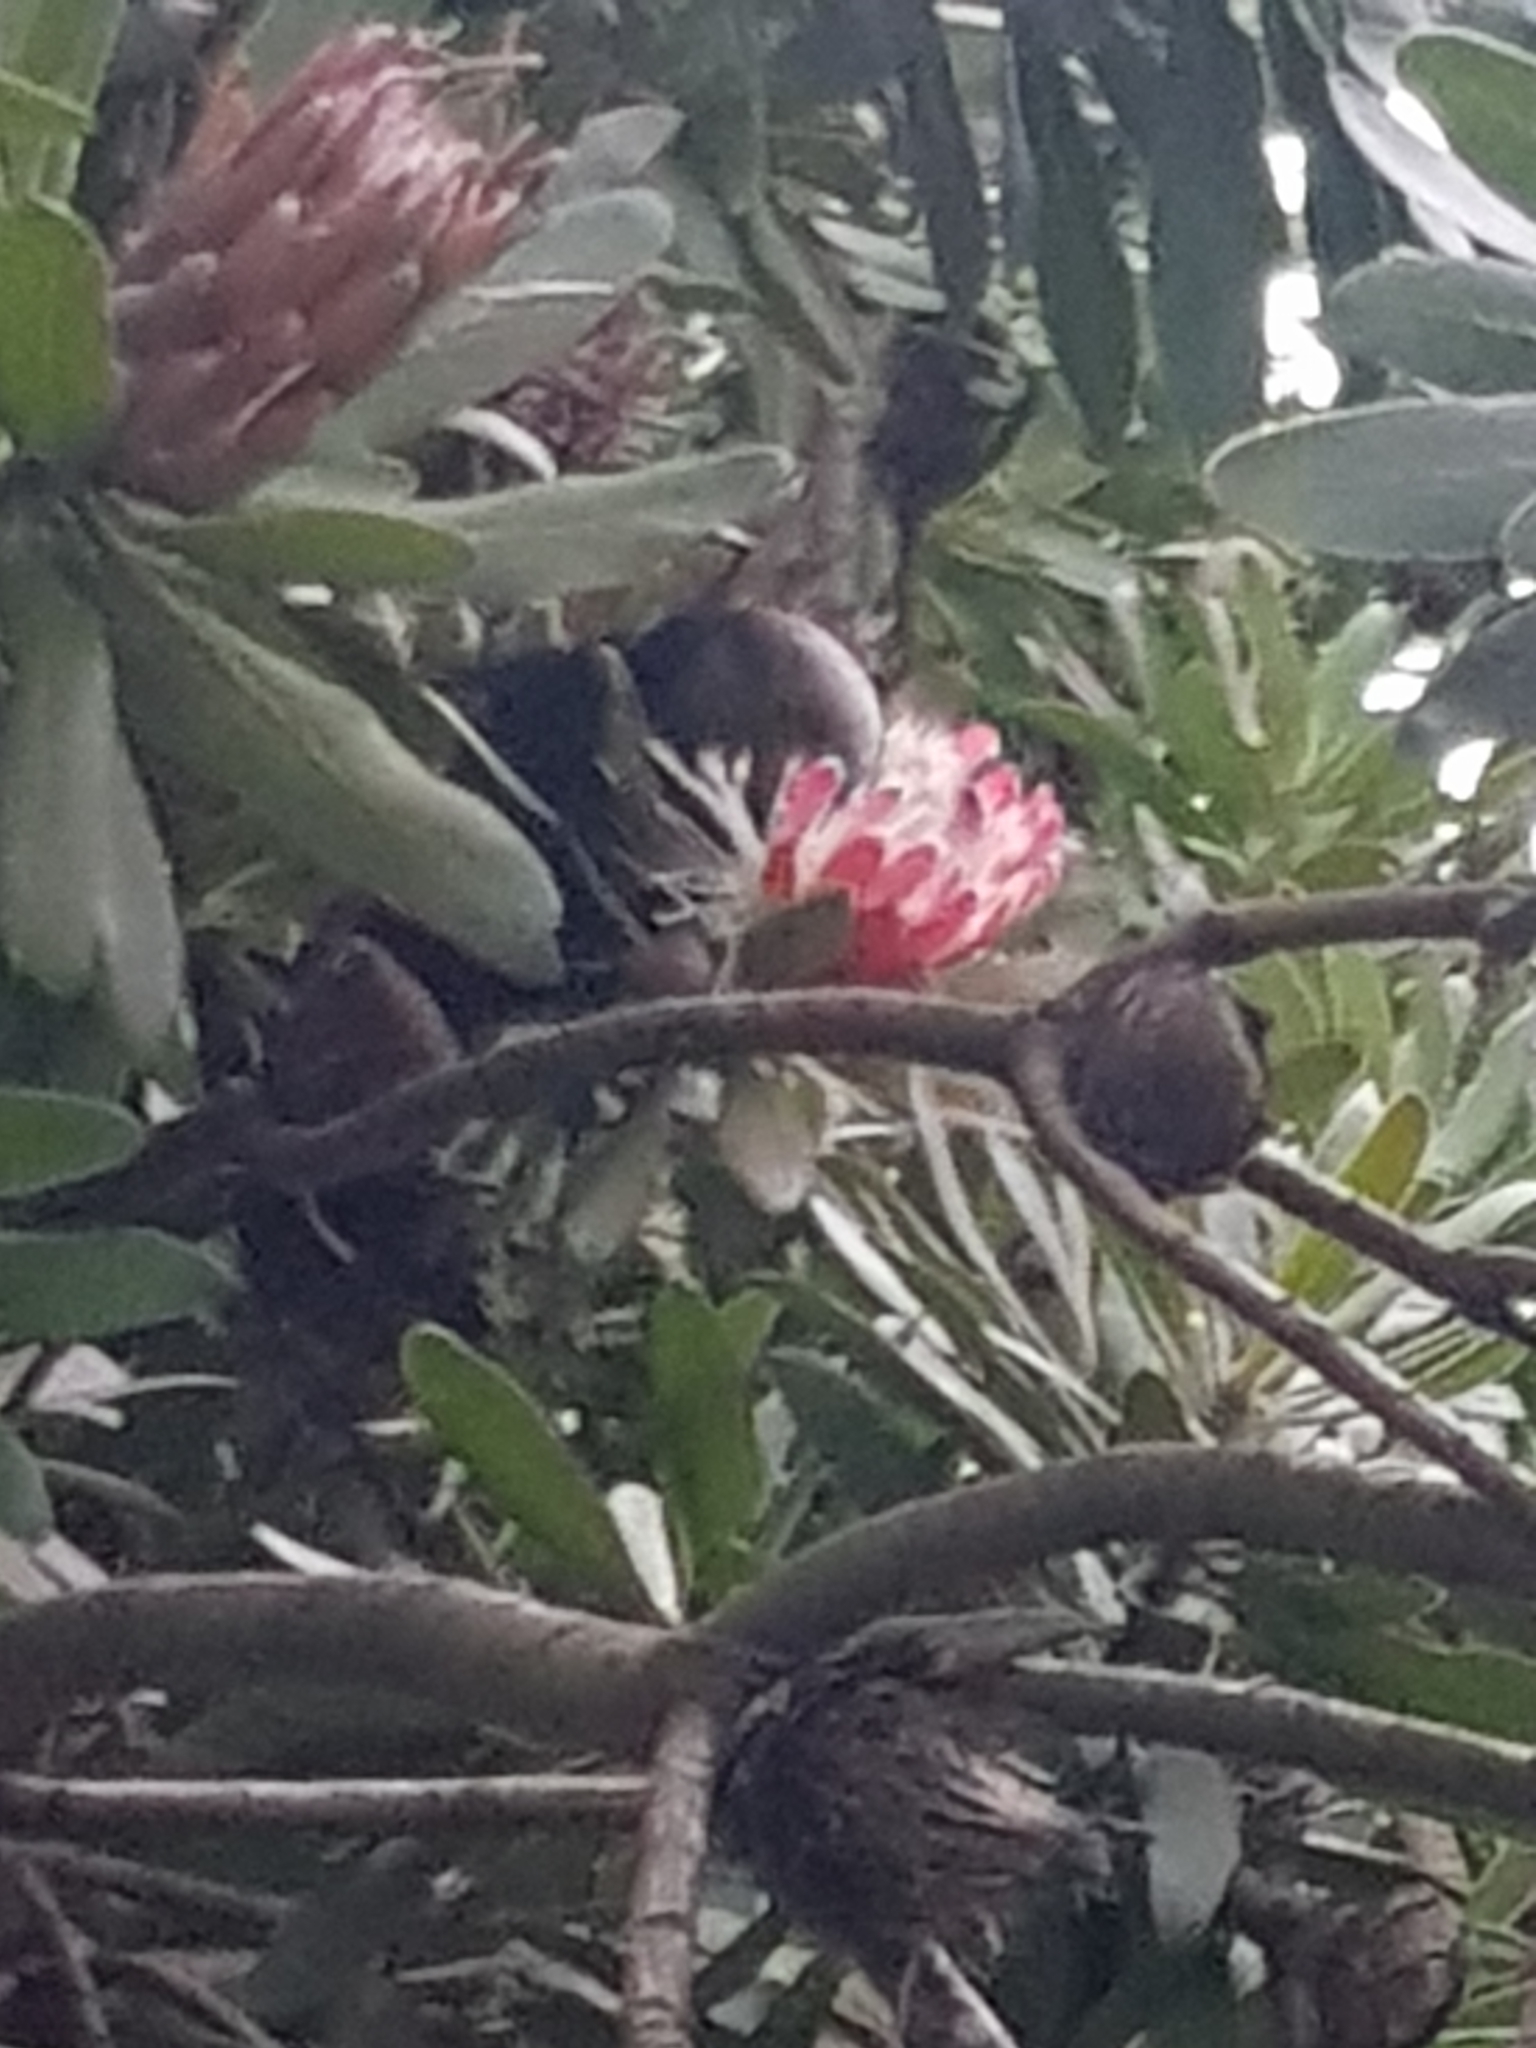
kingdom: Animalia
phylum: Chordata
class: Aves
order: Psittaciformes
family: Psittacidae
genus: Nestor
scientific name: Nestor meridionalis
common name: New zealand kaka
